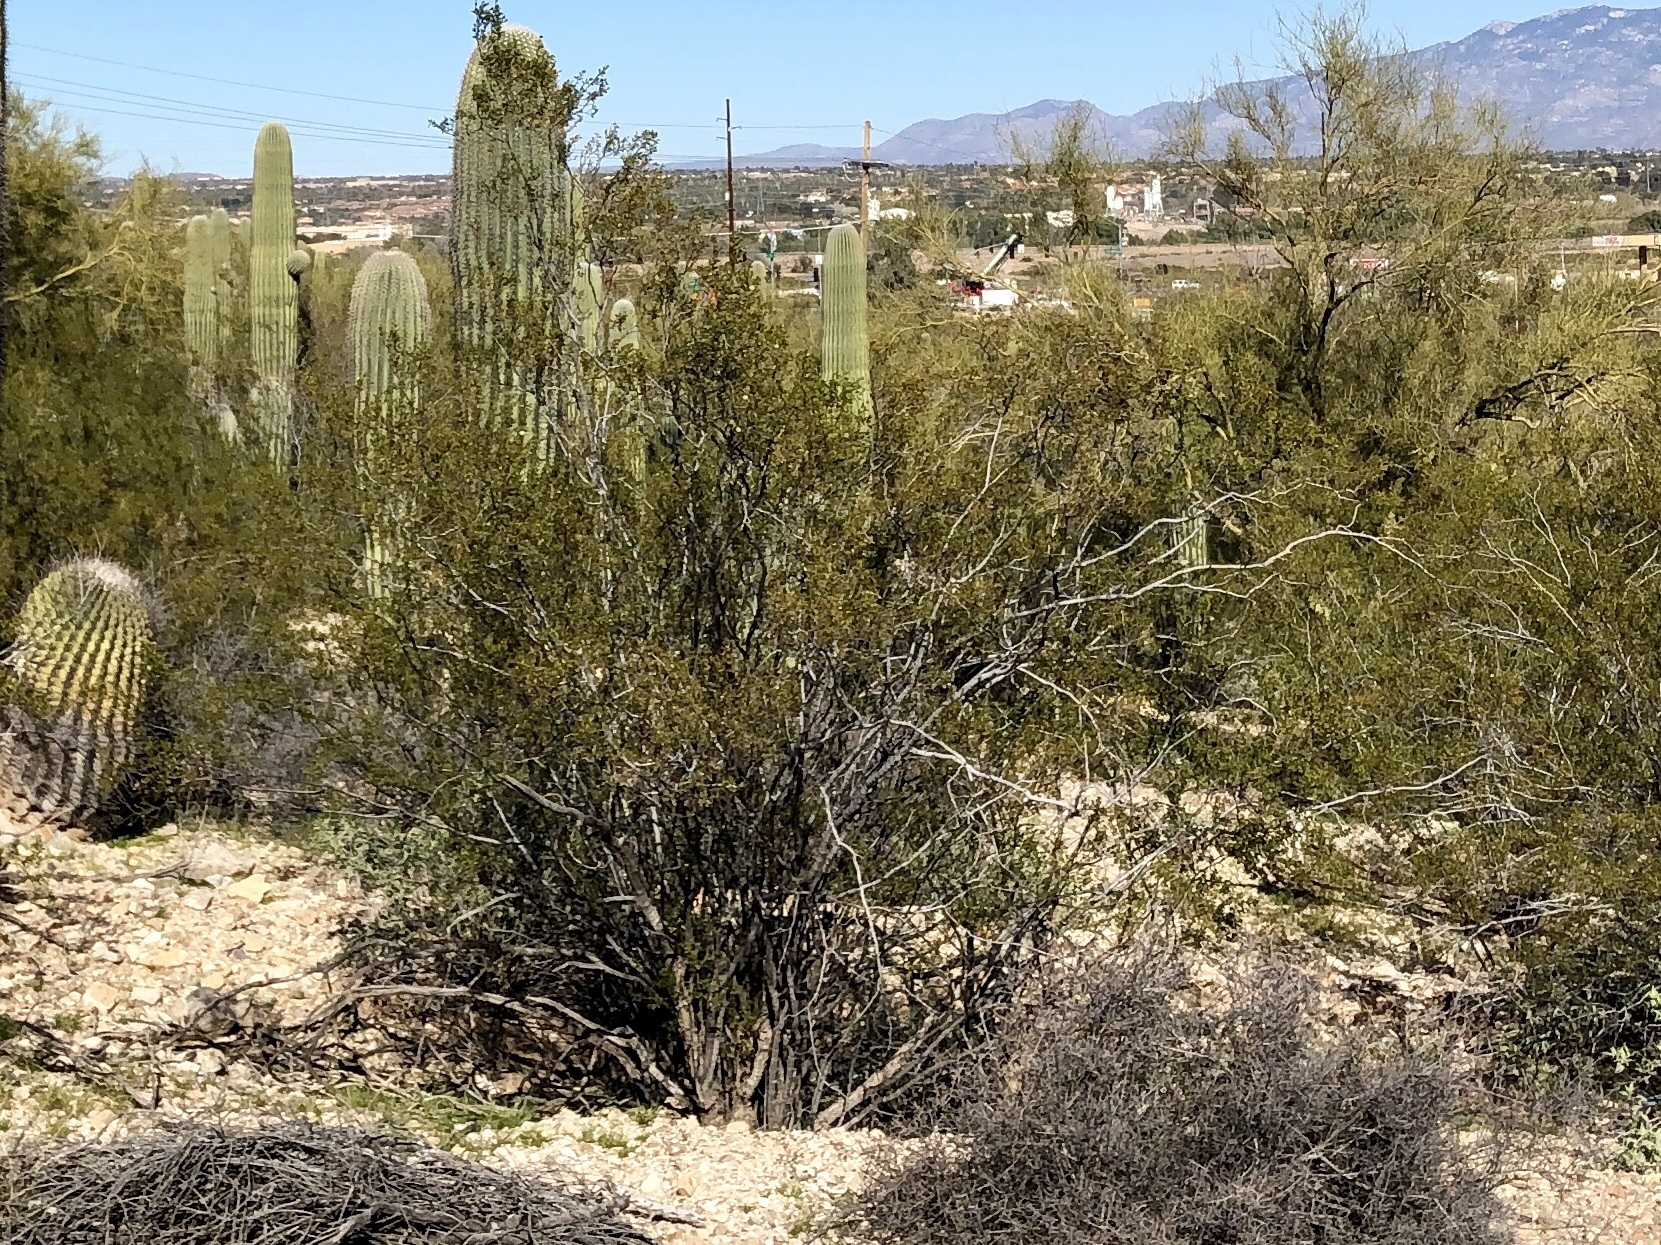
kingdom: Plantae
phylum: Tracheophyta
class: Magnoliopsida
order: Zygophyllales
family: Zygophyllaceae
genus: Larrea
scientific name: Larrea tridentata
